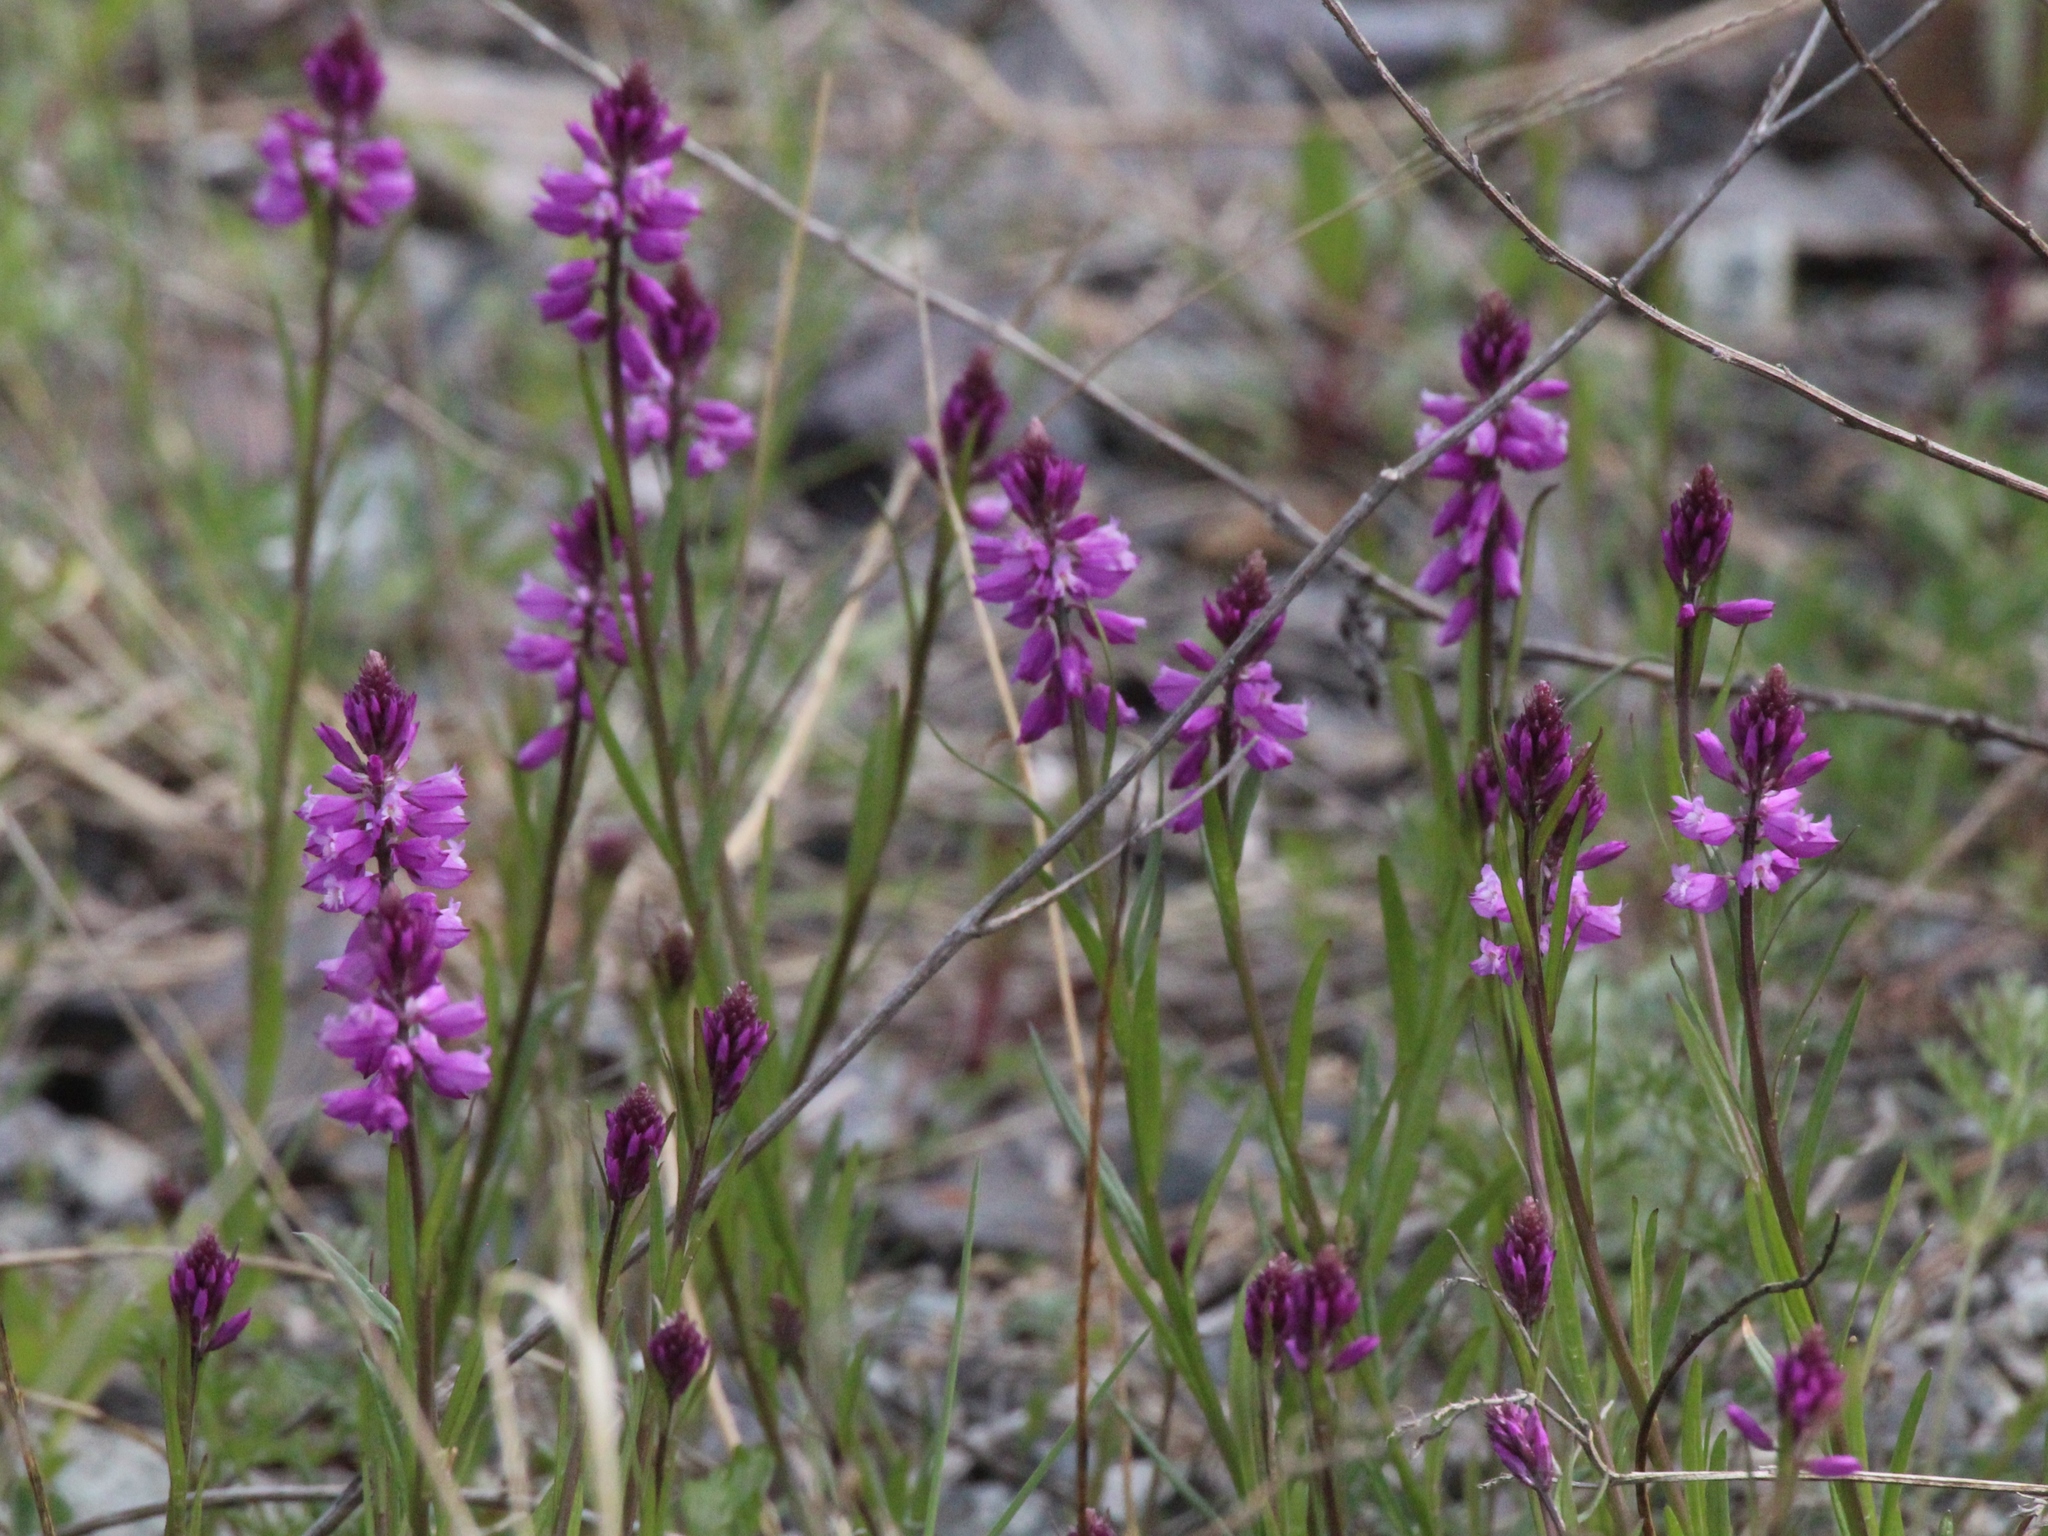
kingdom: Plantae
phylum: Tracheophyta
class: Magnoliopsida
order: Fabales
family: Polygalaceae
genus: Polygala
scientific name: Polygala comosa
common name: Tufted milkwort
